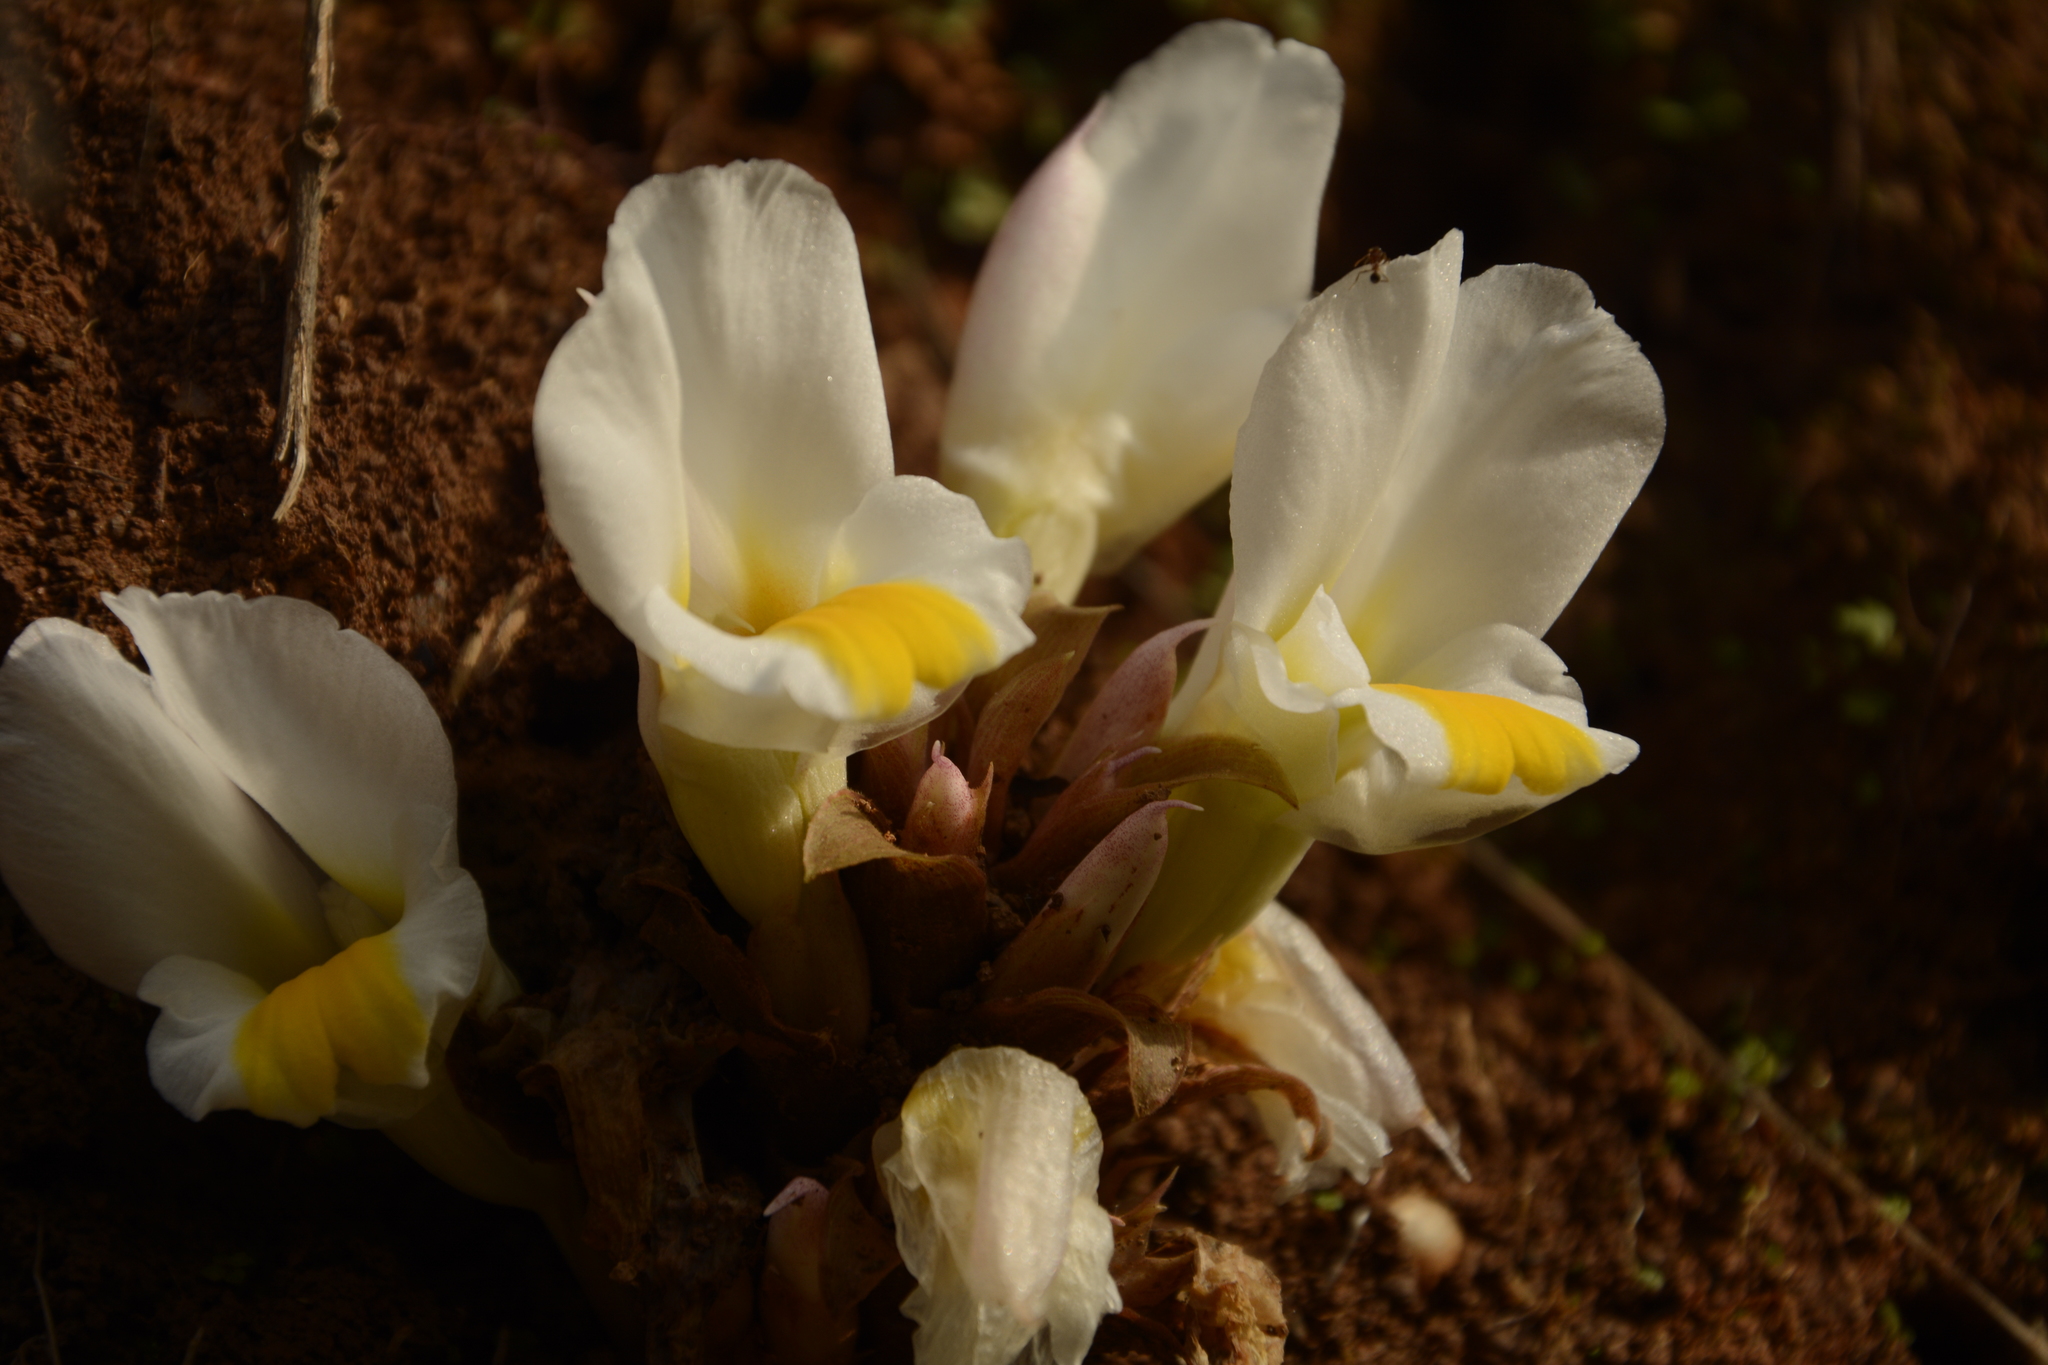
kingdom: Plantae
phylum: Tracheophyta
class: Liliopsida
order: Zingiberales
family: Zingiberaceae
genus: Curcuma
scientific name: Curcuma karnatakensis
